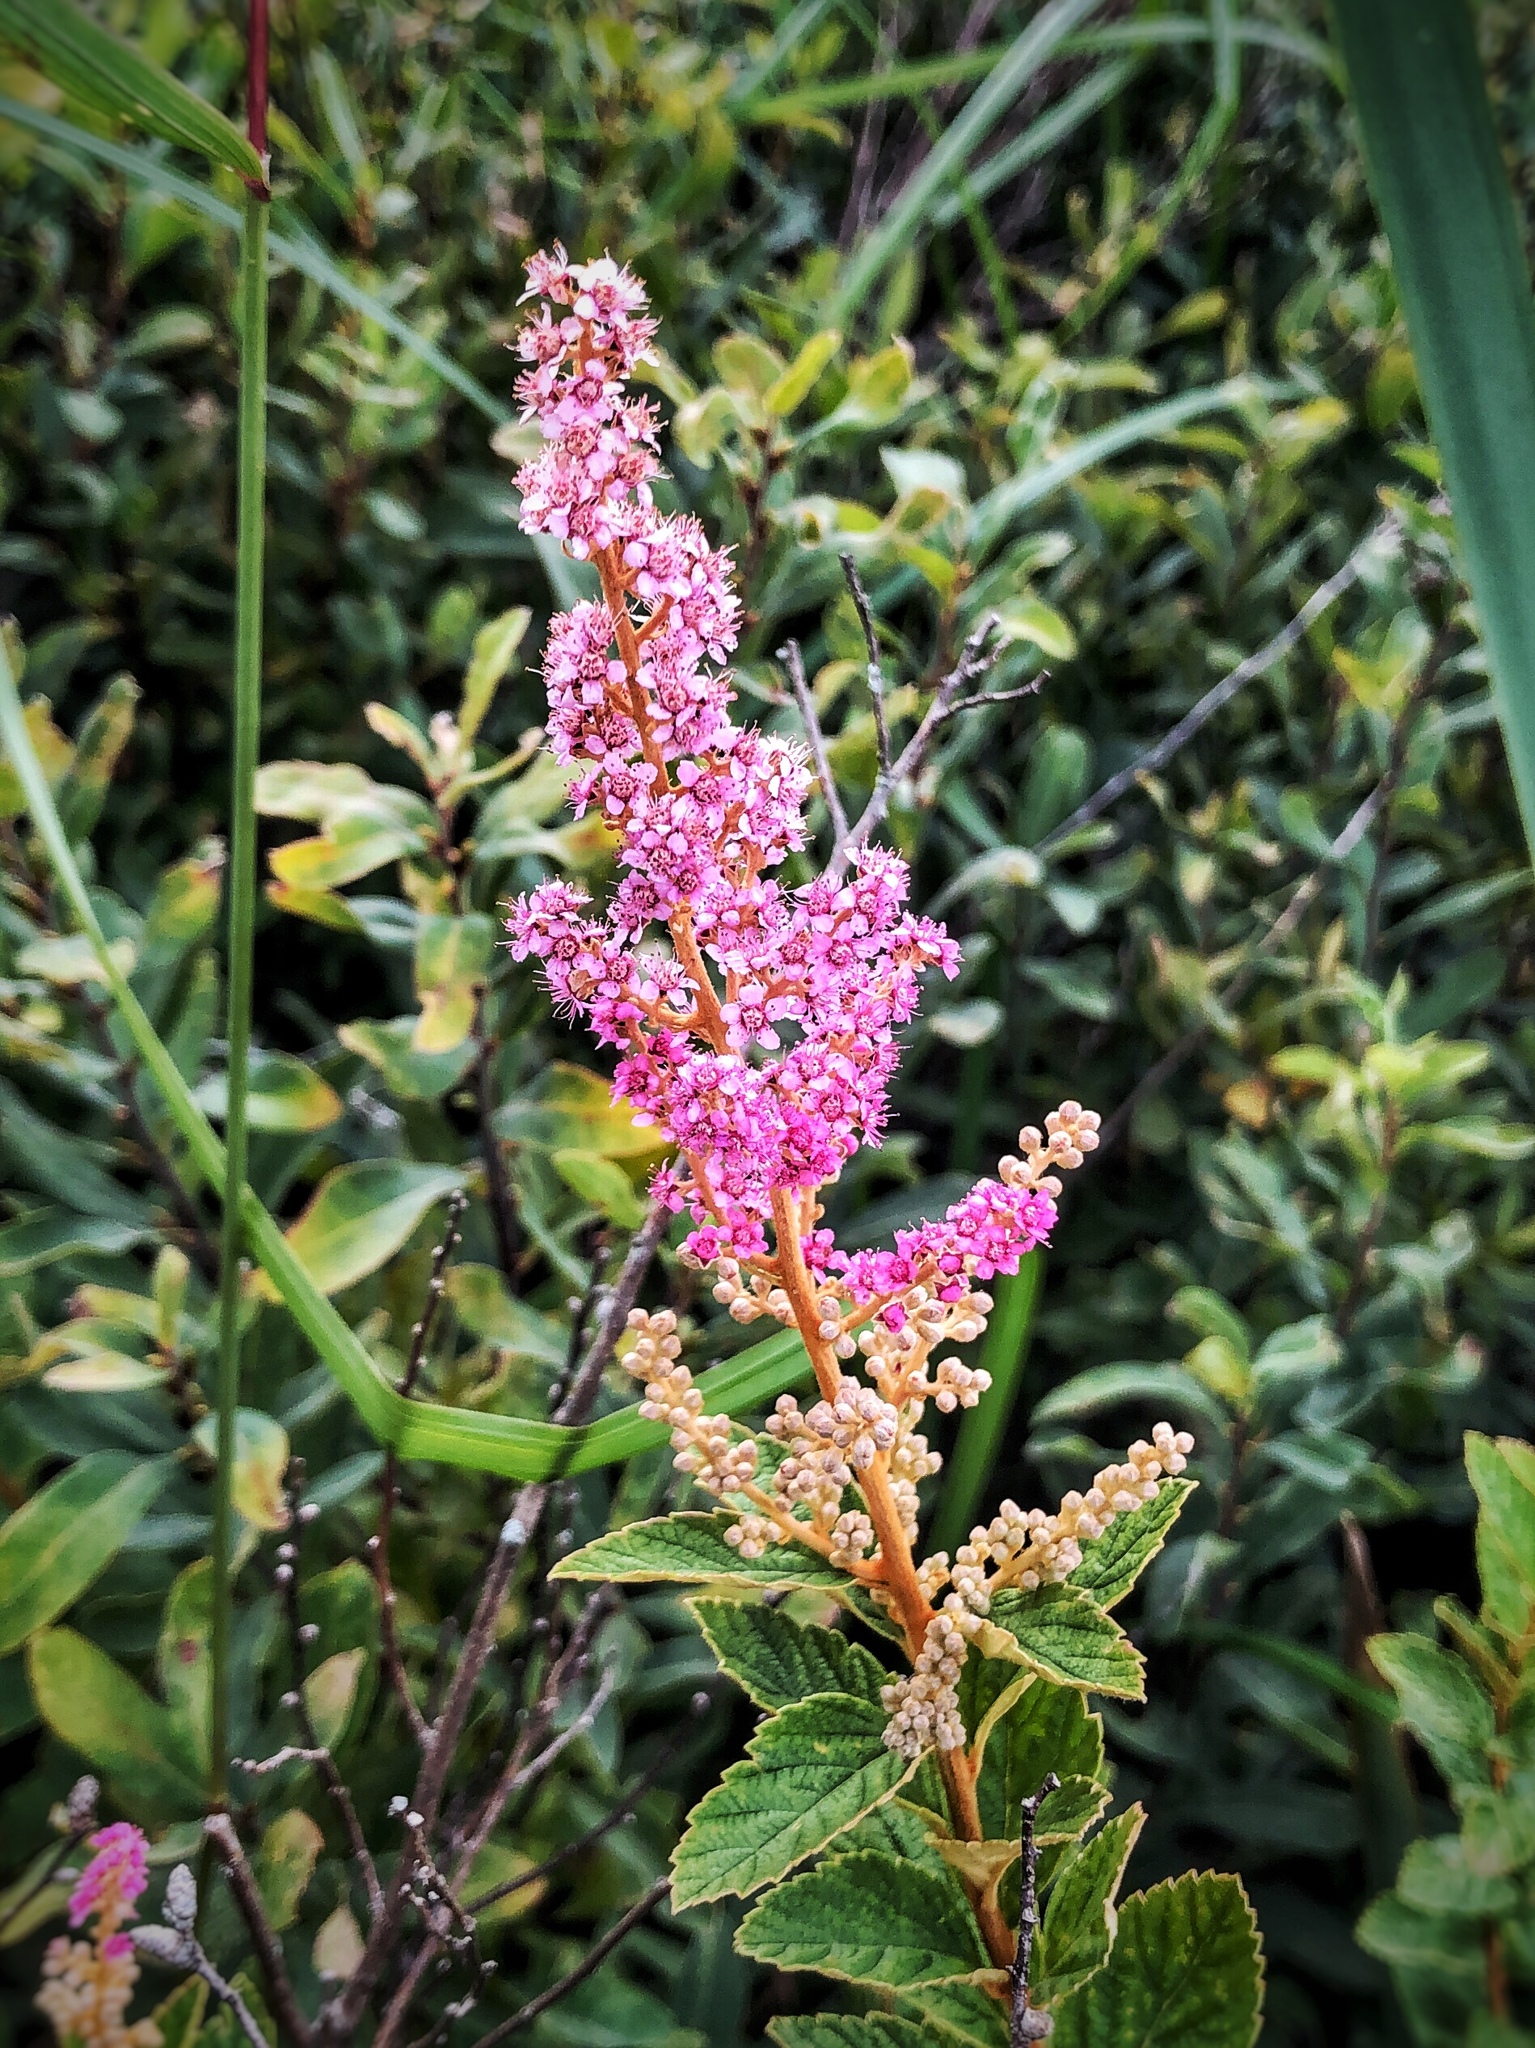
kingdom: Plantae
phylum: Tracheophyta
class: Magnoliopsida
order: Rosales
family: Rosaceae
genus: Spiraea
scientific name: Spiraea tomentosa
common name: Hardhack
